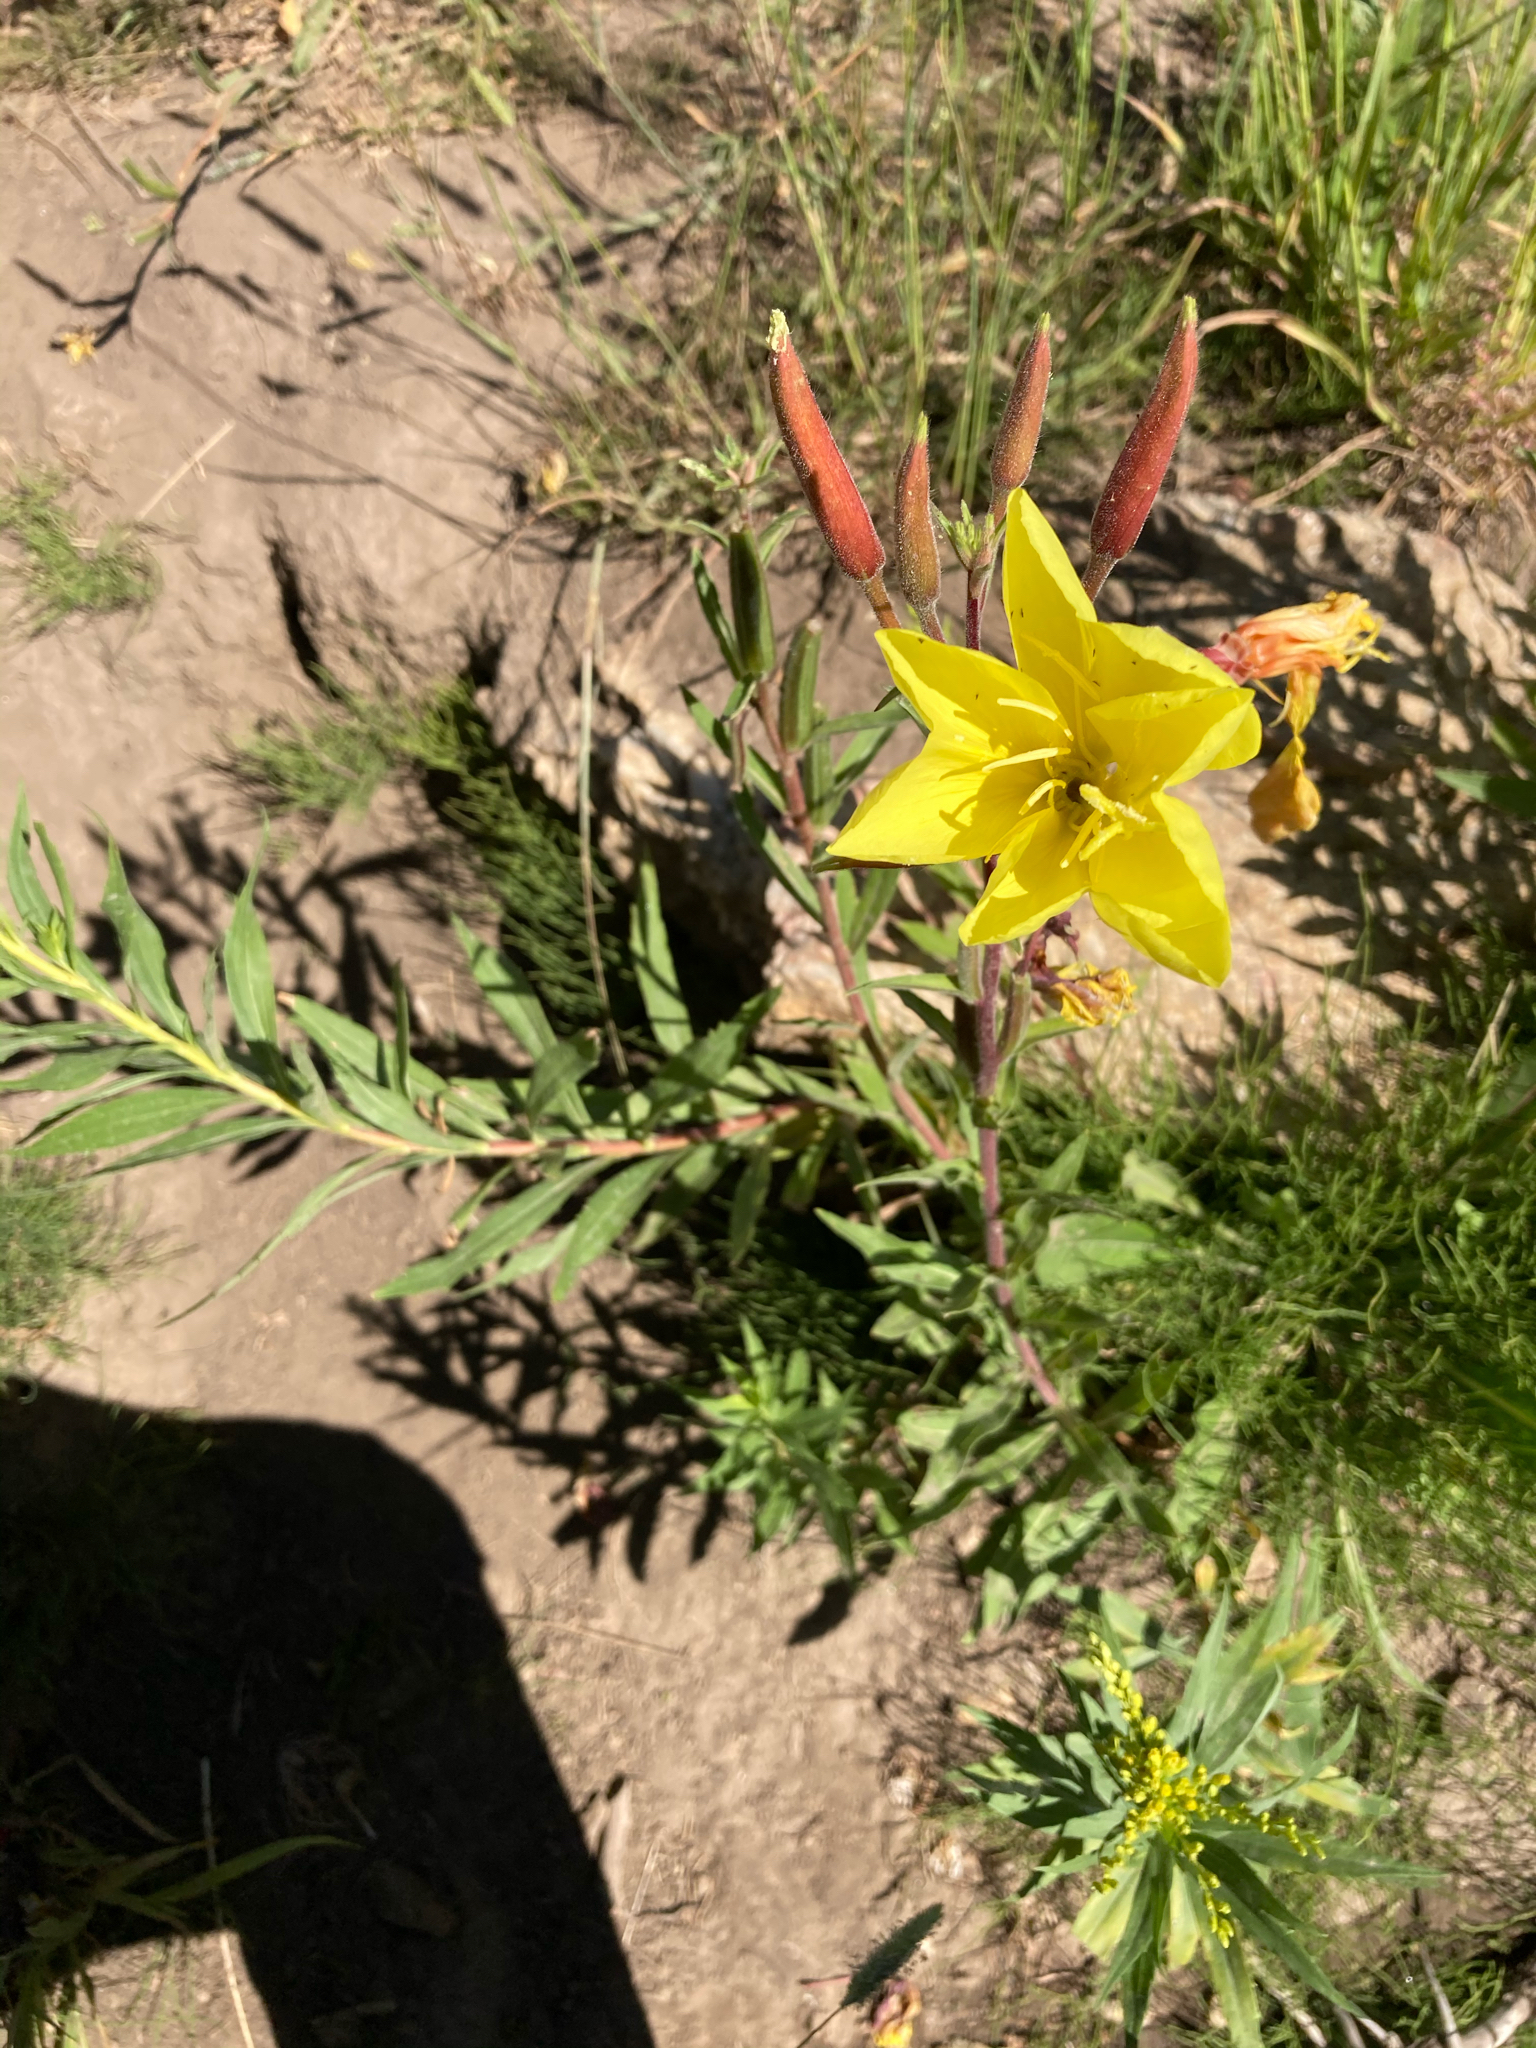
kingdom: Plantae
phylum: Tracheophyta
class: Magnoliopsida
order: Myrtales
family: Onagraceae
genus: Oenothera
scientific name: Oenothera elata
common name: Hooker's evening-primrose
